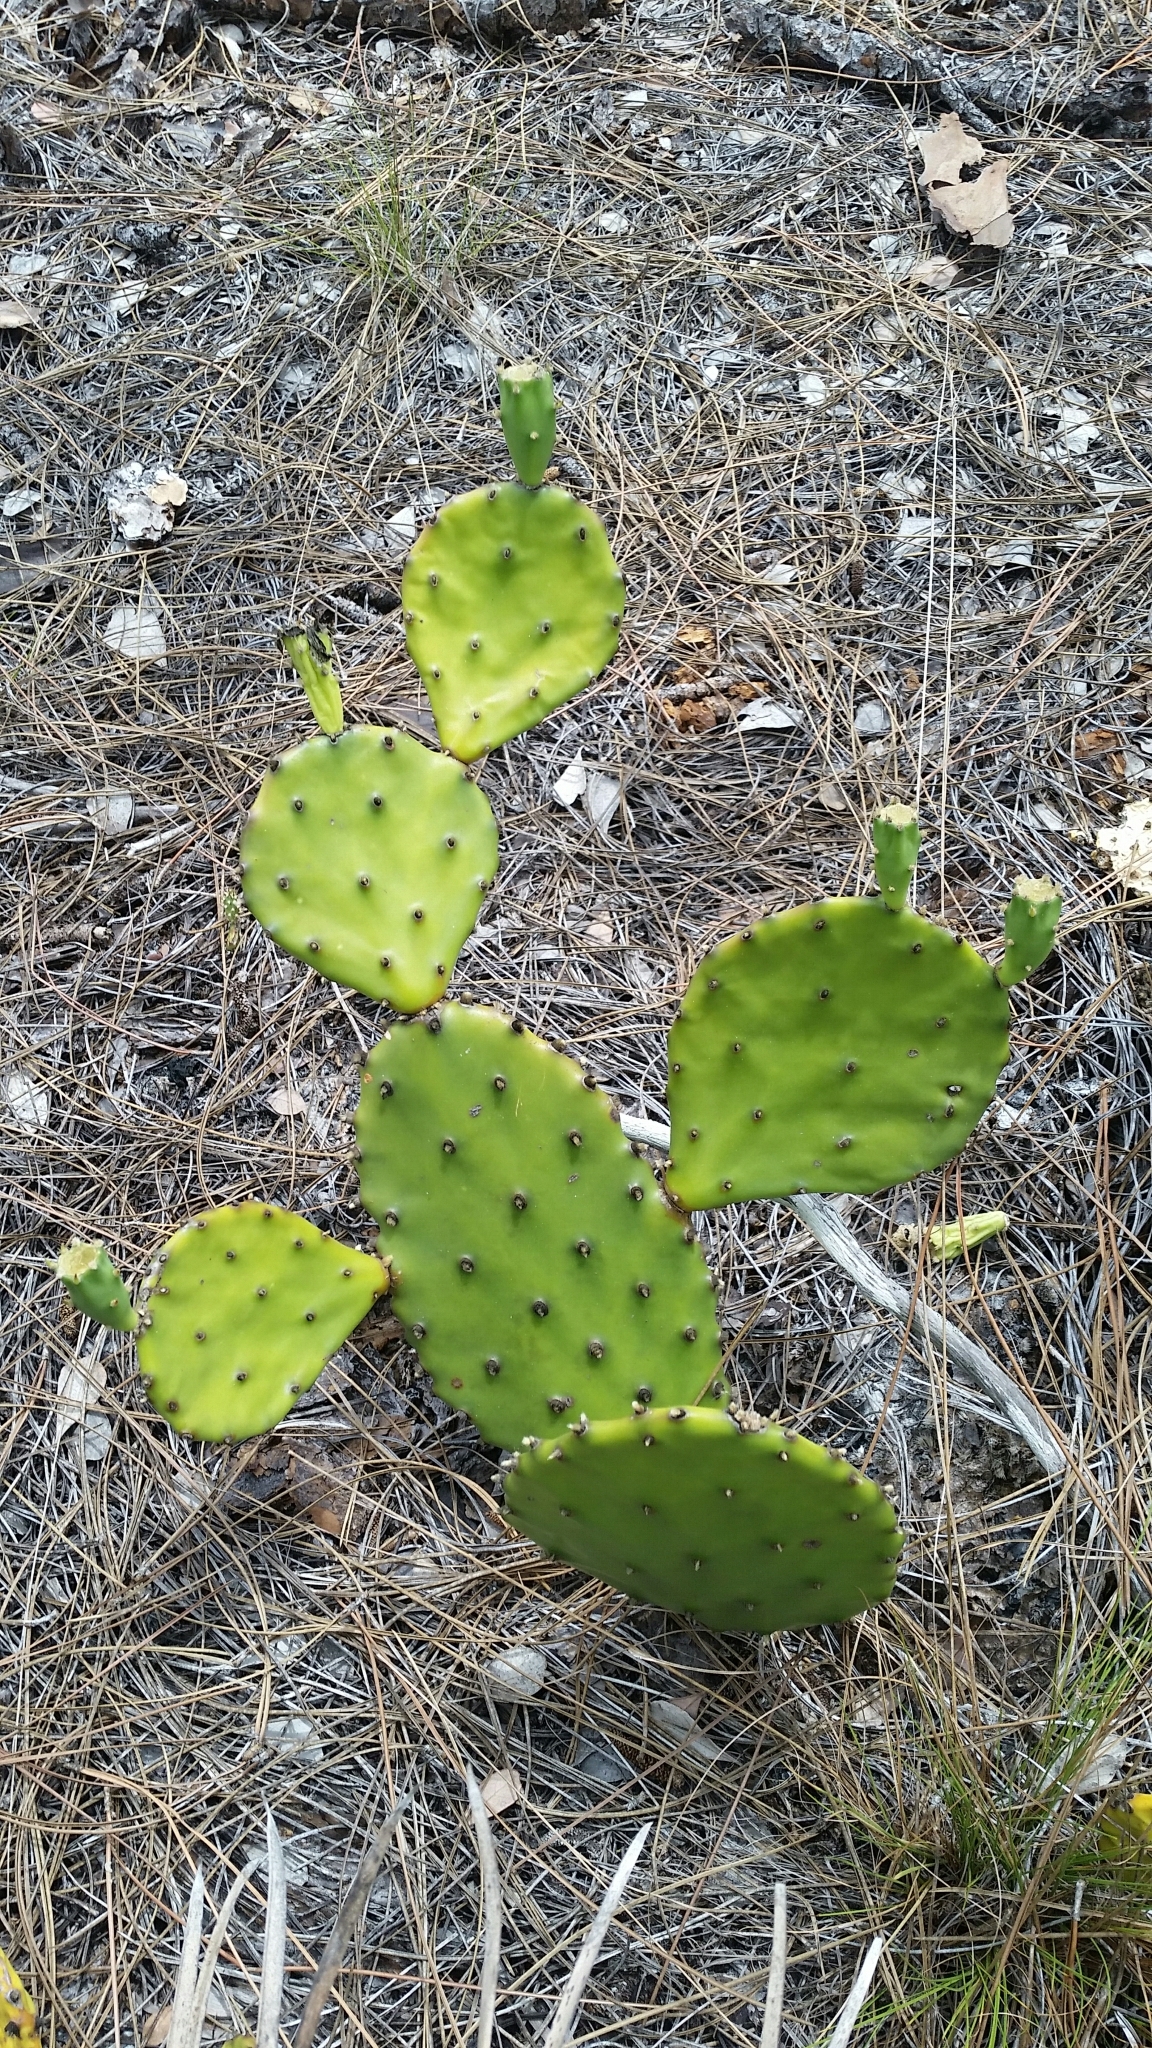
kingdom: Plantae
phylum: Tracheophyta
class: Magnoliopsida
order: Caryophyllales
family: Cactaceae
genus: Opuntia
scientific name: Opuntia austrina
